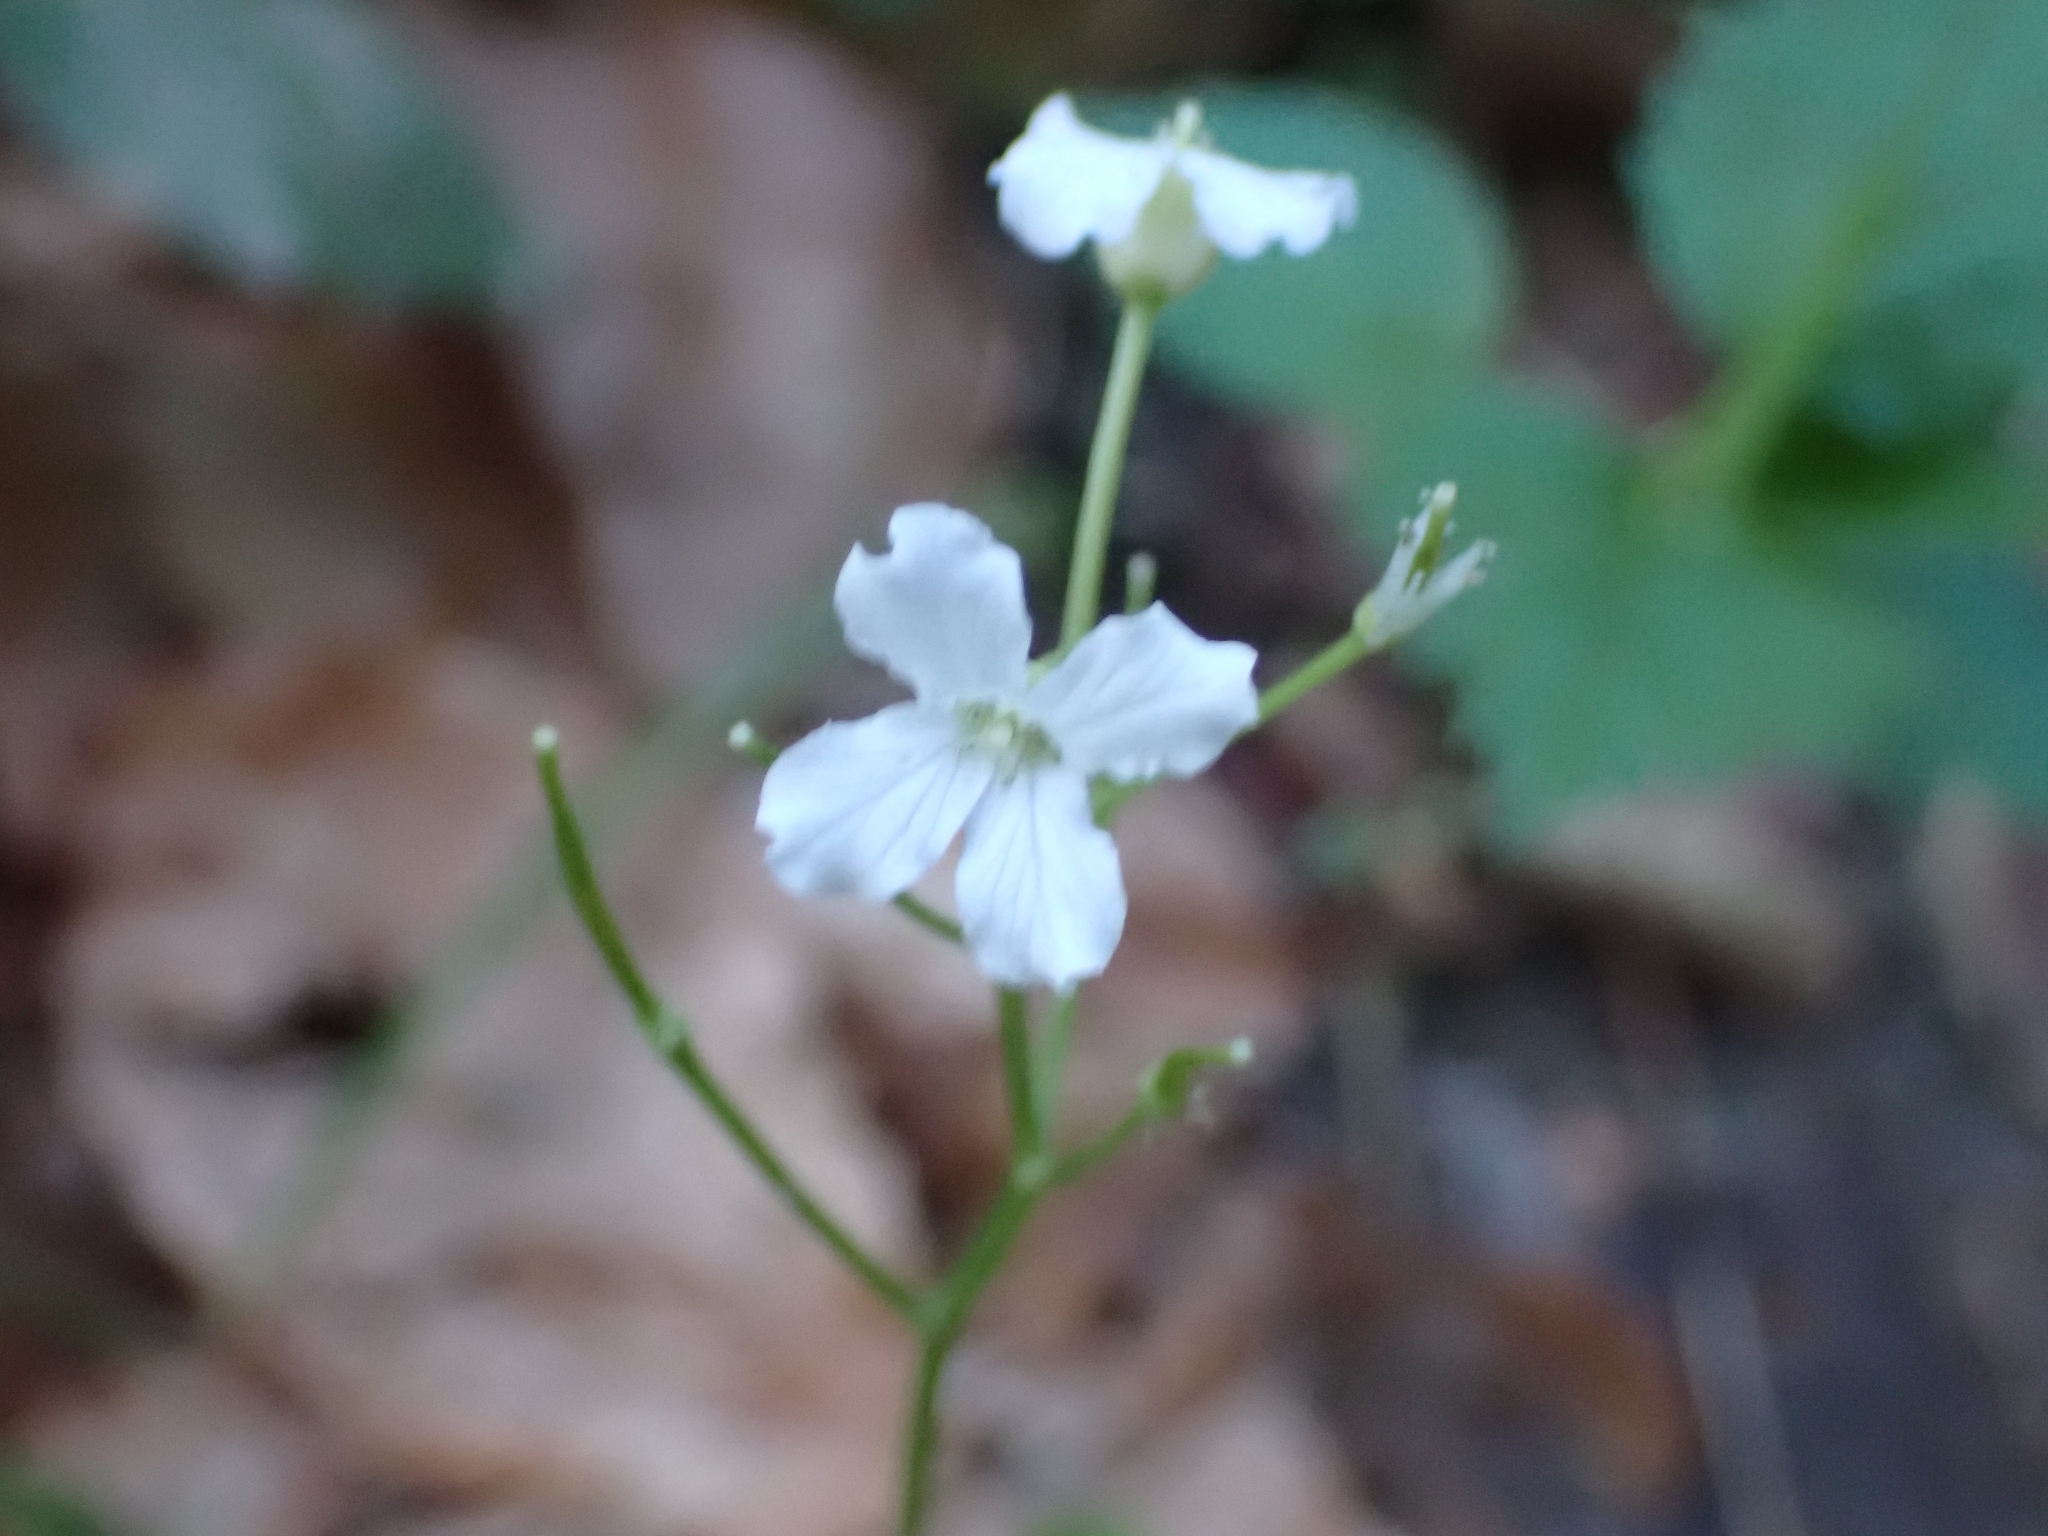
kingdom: Plantae
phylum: Tracheophyta
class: Magnoliopsida
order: Brassicales
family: Brassicaceae
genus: Cardamine
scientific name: Cardamine trifolia
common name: Trefoil cress
